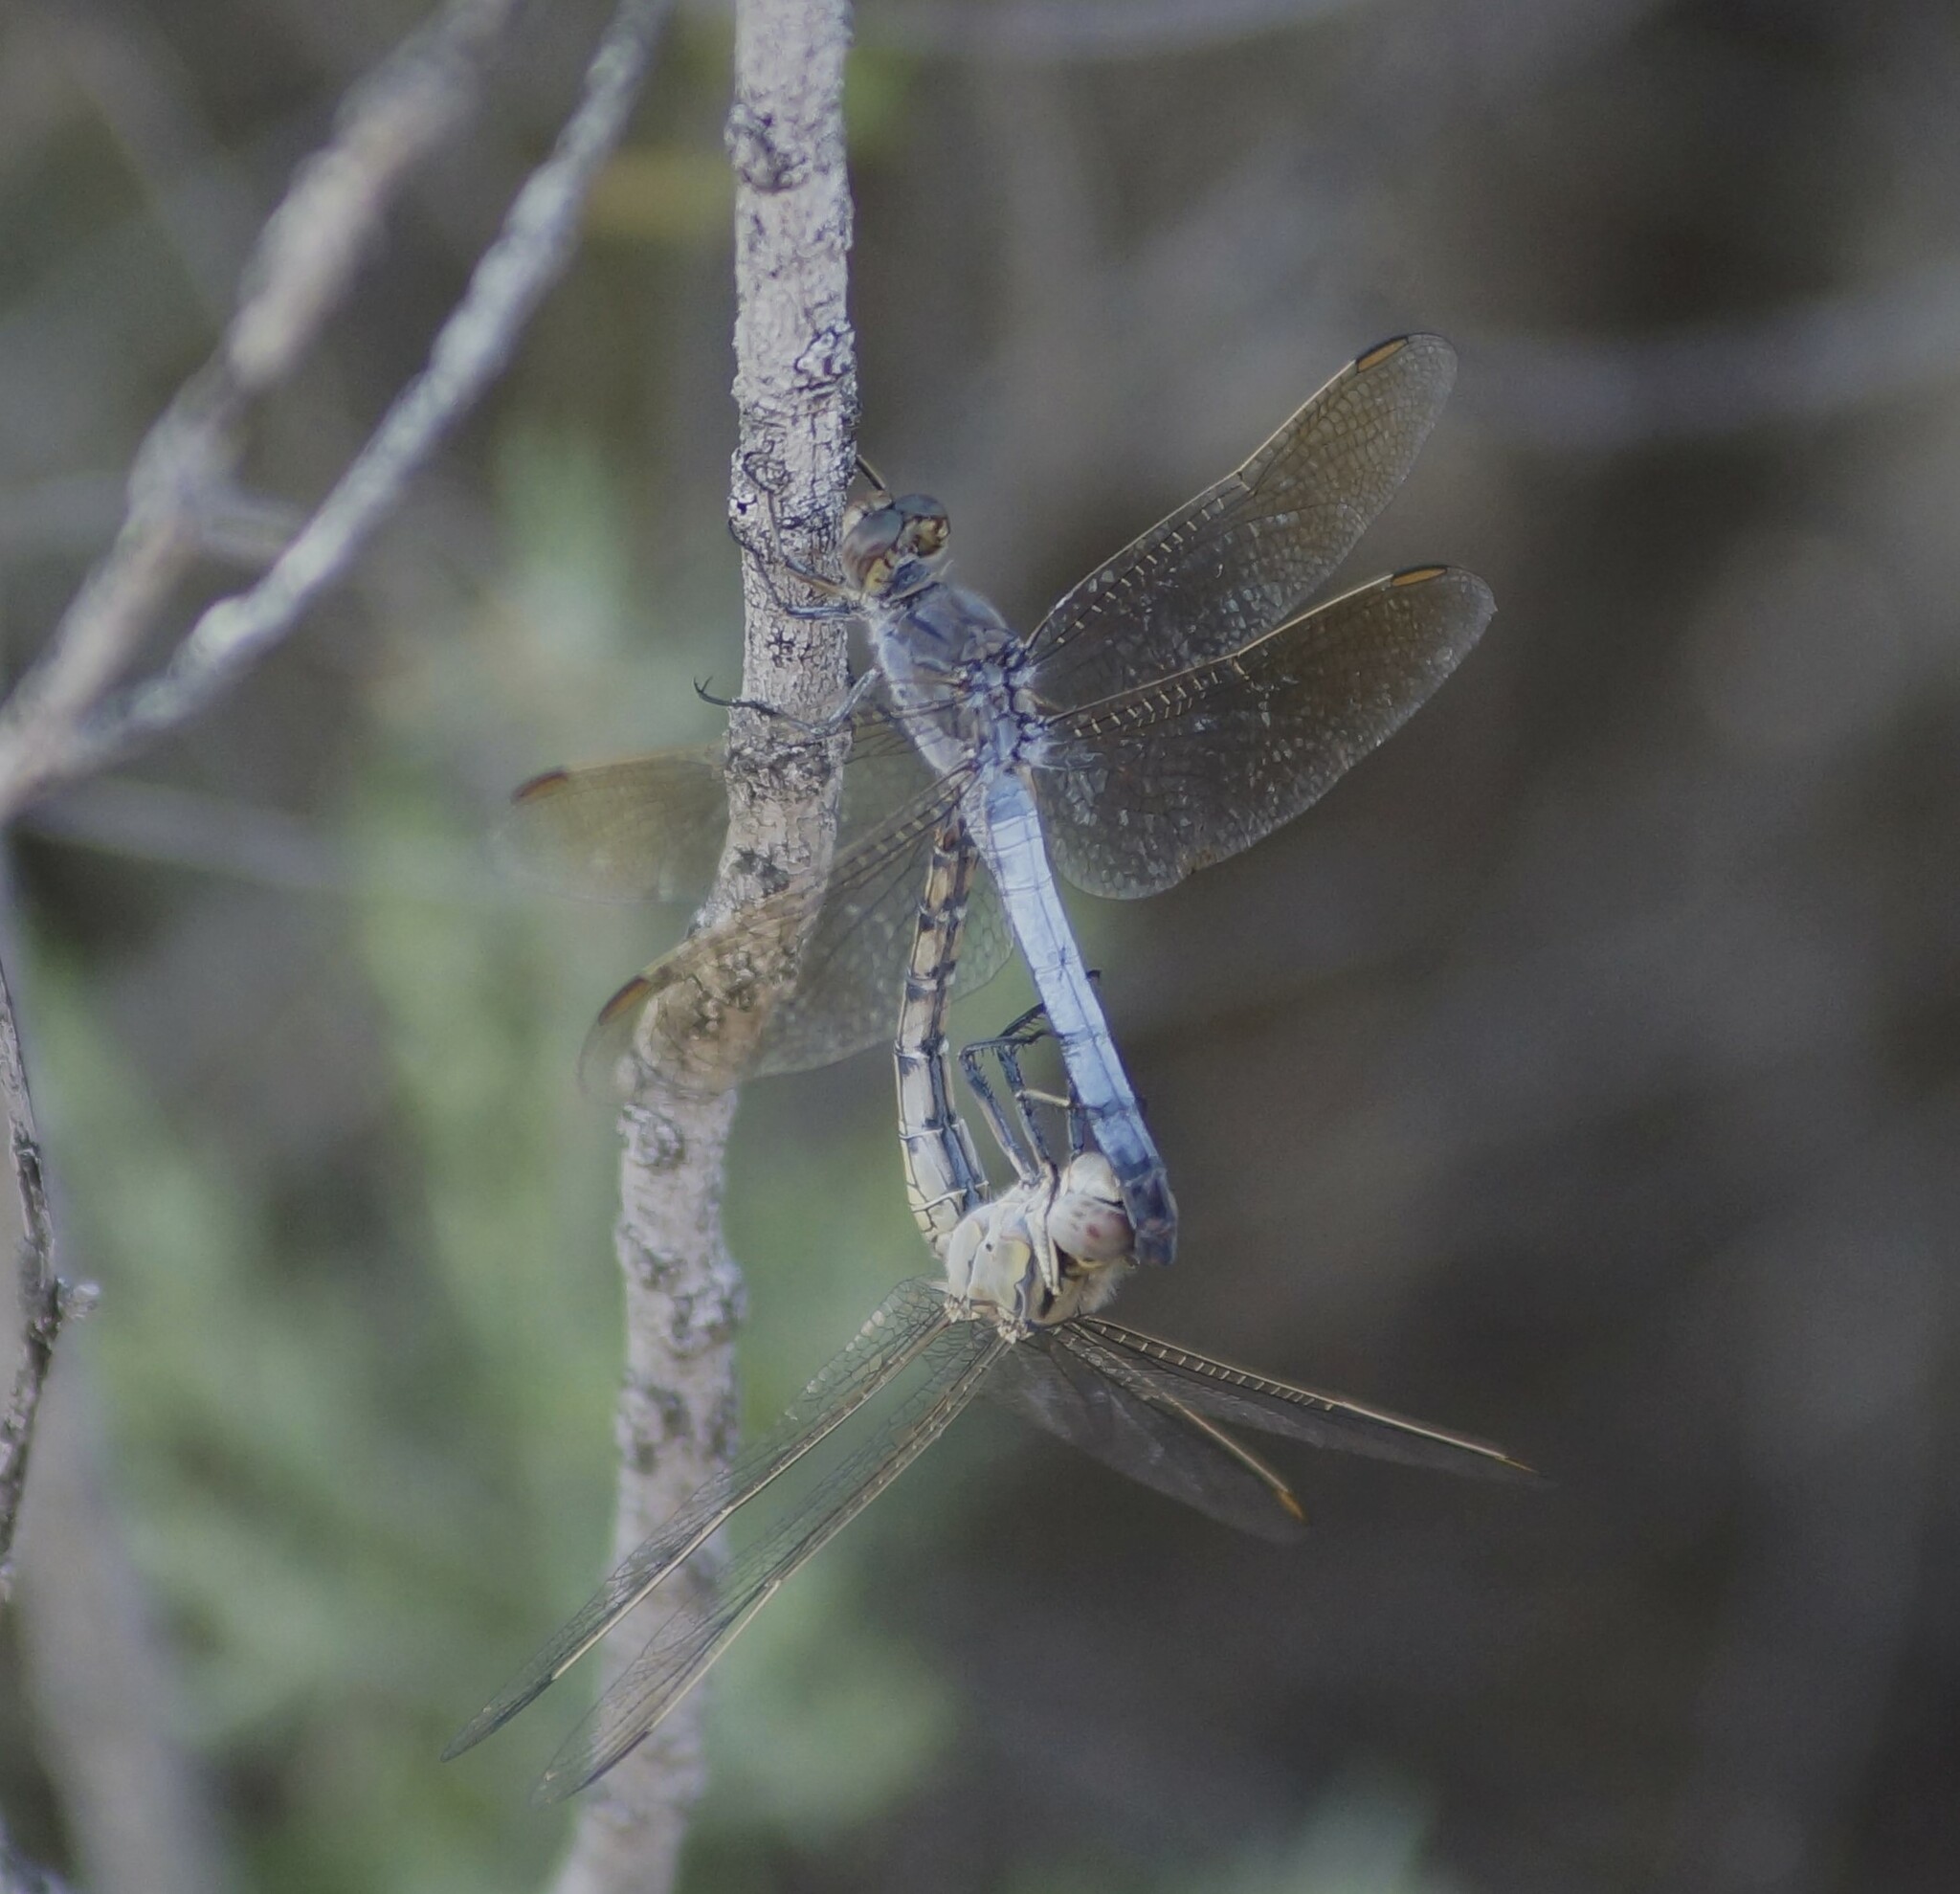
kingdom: Animalia
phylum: Arthropoda
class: Insecta
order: Odonata
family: Libellulidae
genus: Orthetrum
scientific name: Orthetrum caledonicum
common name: Blue skimmer
